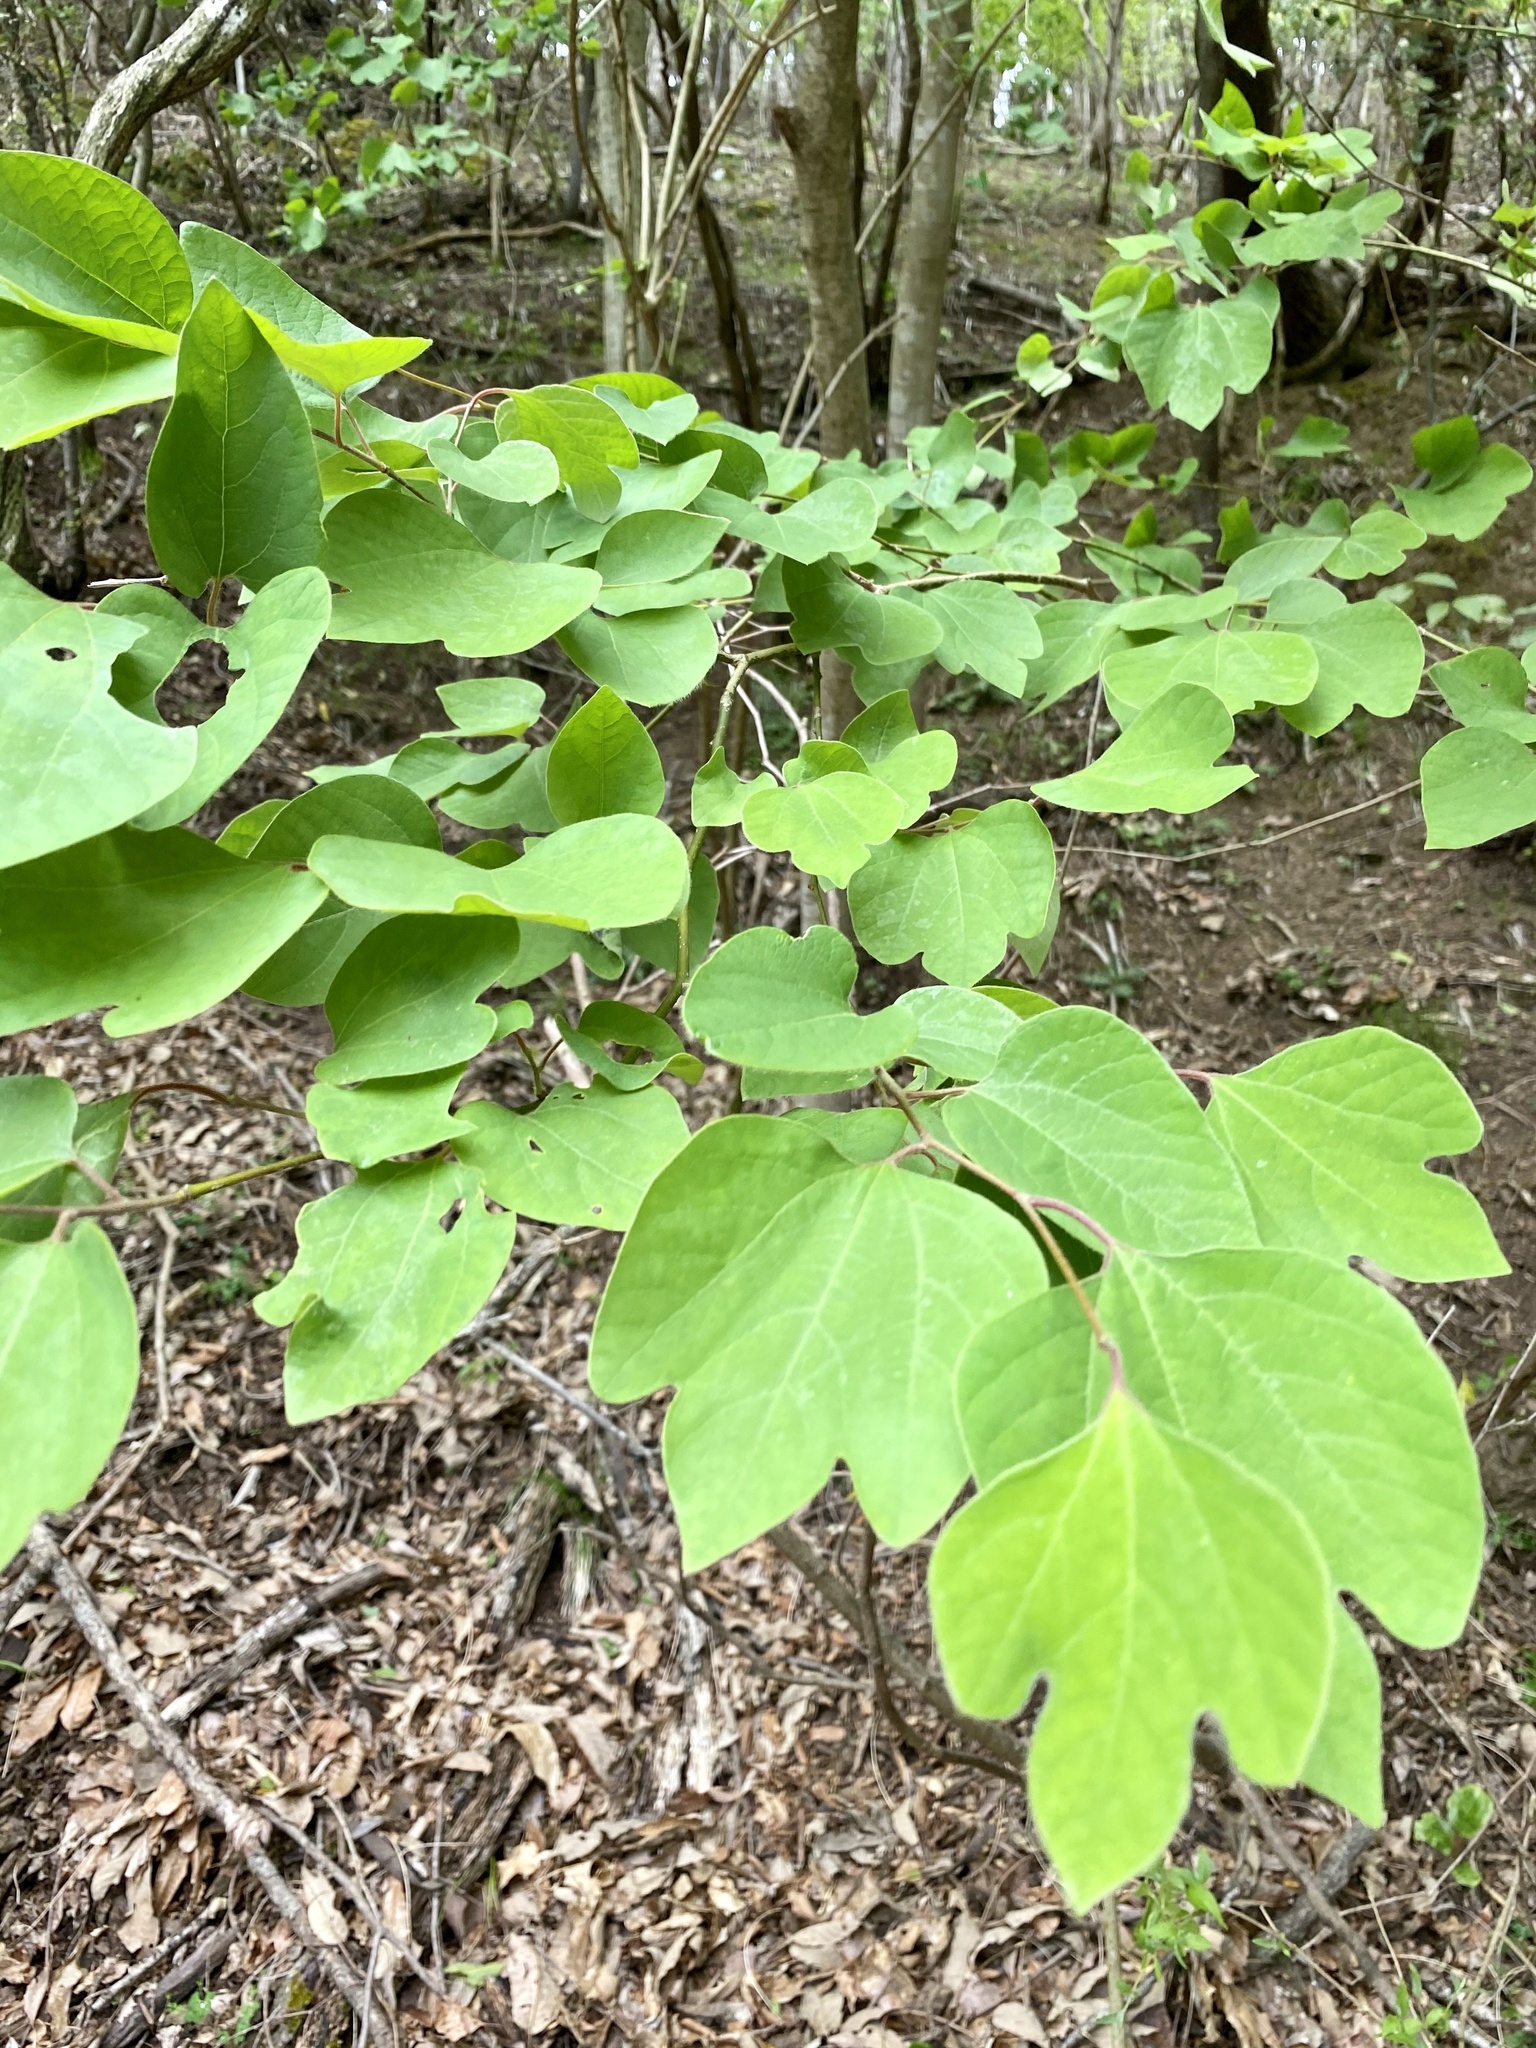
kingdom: Plantae
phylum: Tracheophyta
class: Magnoliopsida
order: Laurales
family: Lauraceae
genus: Lindera
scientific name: Lindera obtusiloba
